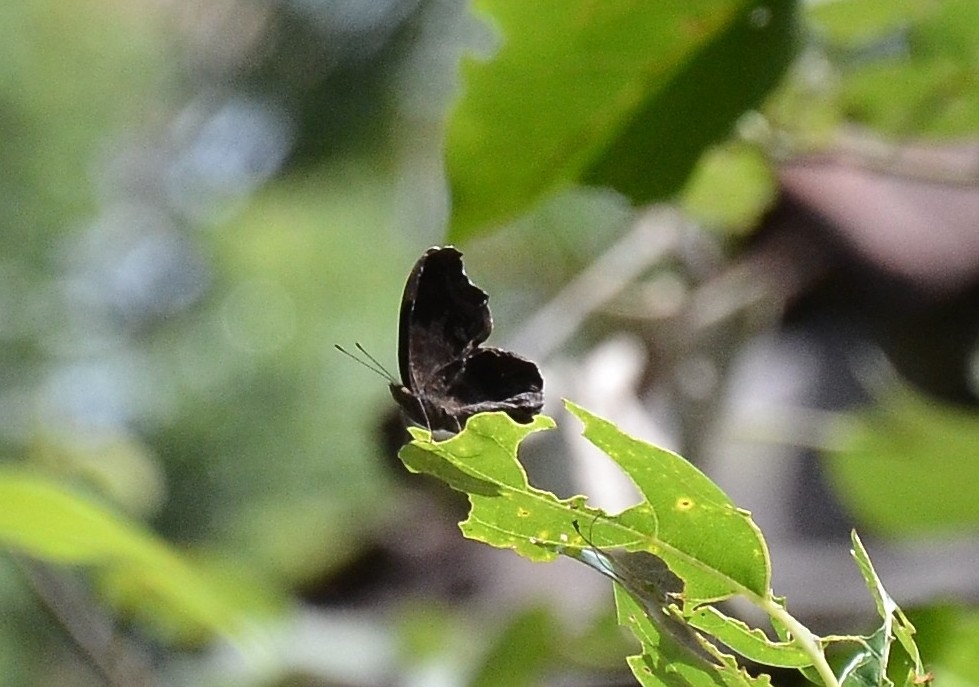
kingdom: Animalia
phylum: Arthropoda
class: Insecta
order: Lepidoptera
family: Nymphalidae
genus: Junonia
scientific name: Junonia iphita
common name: Chocolate pansy
